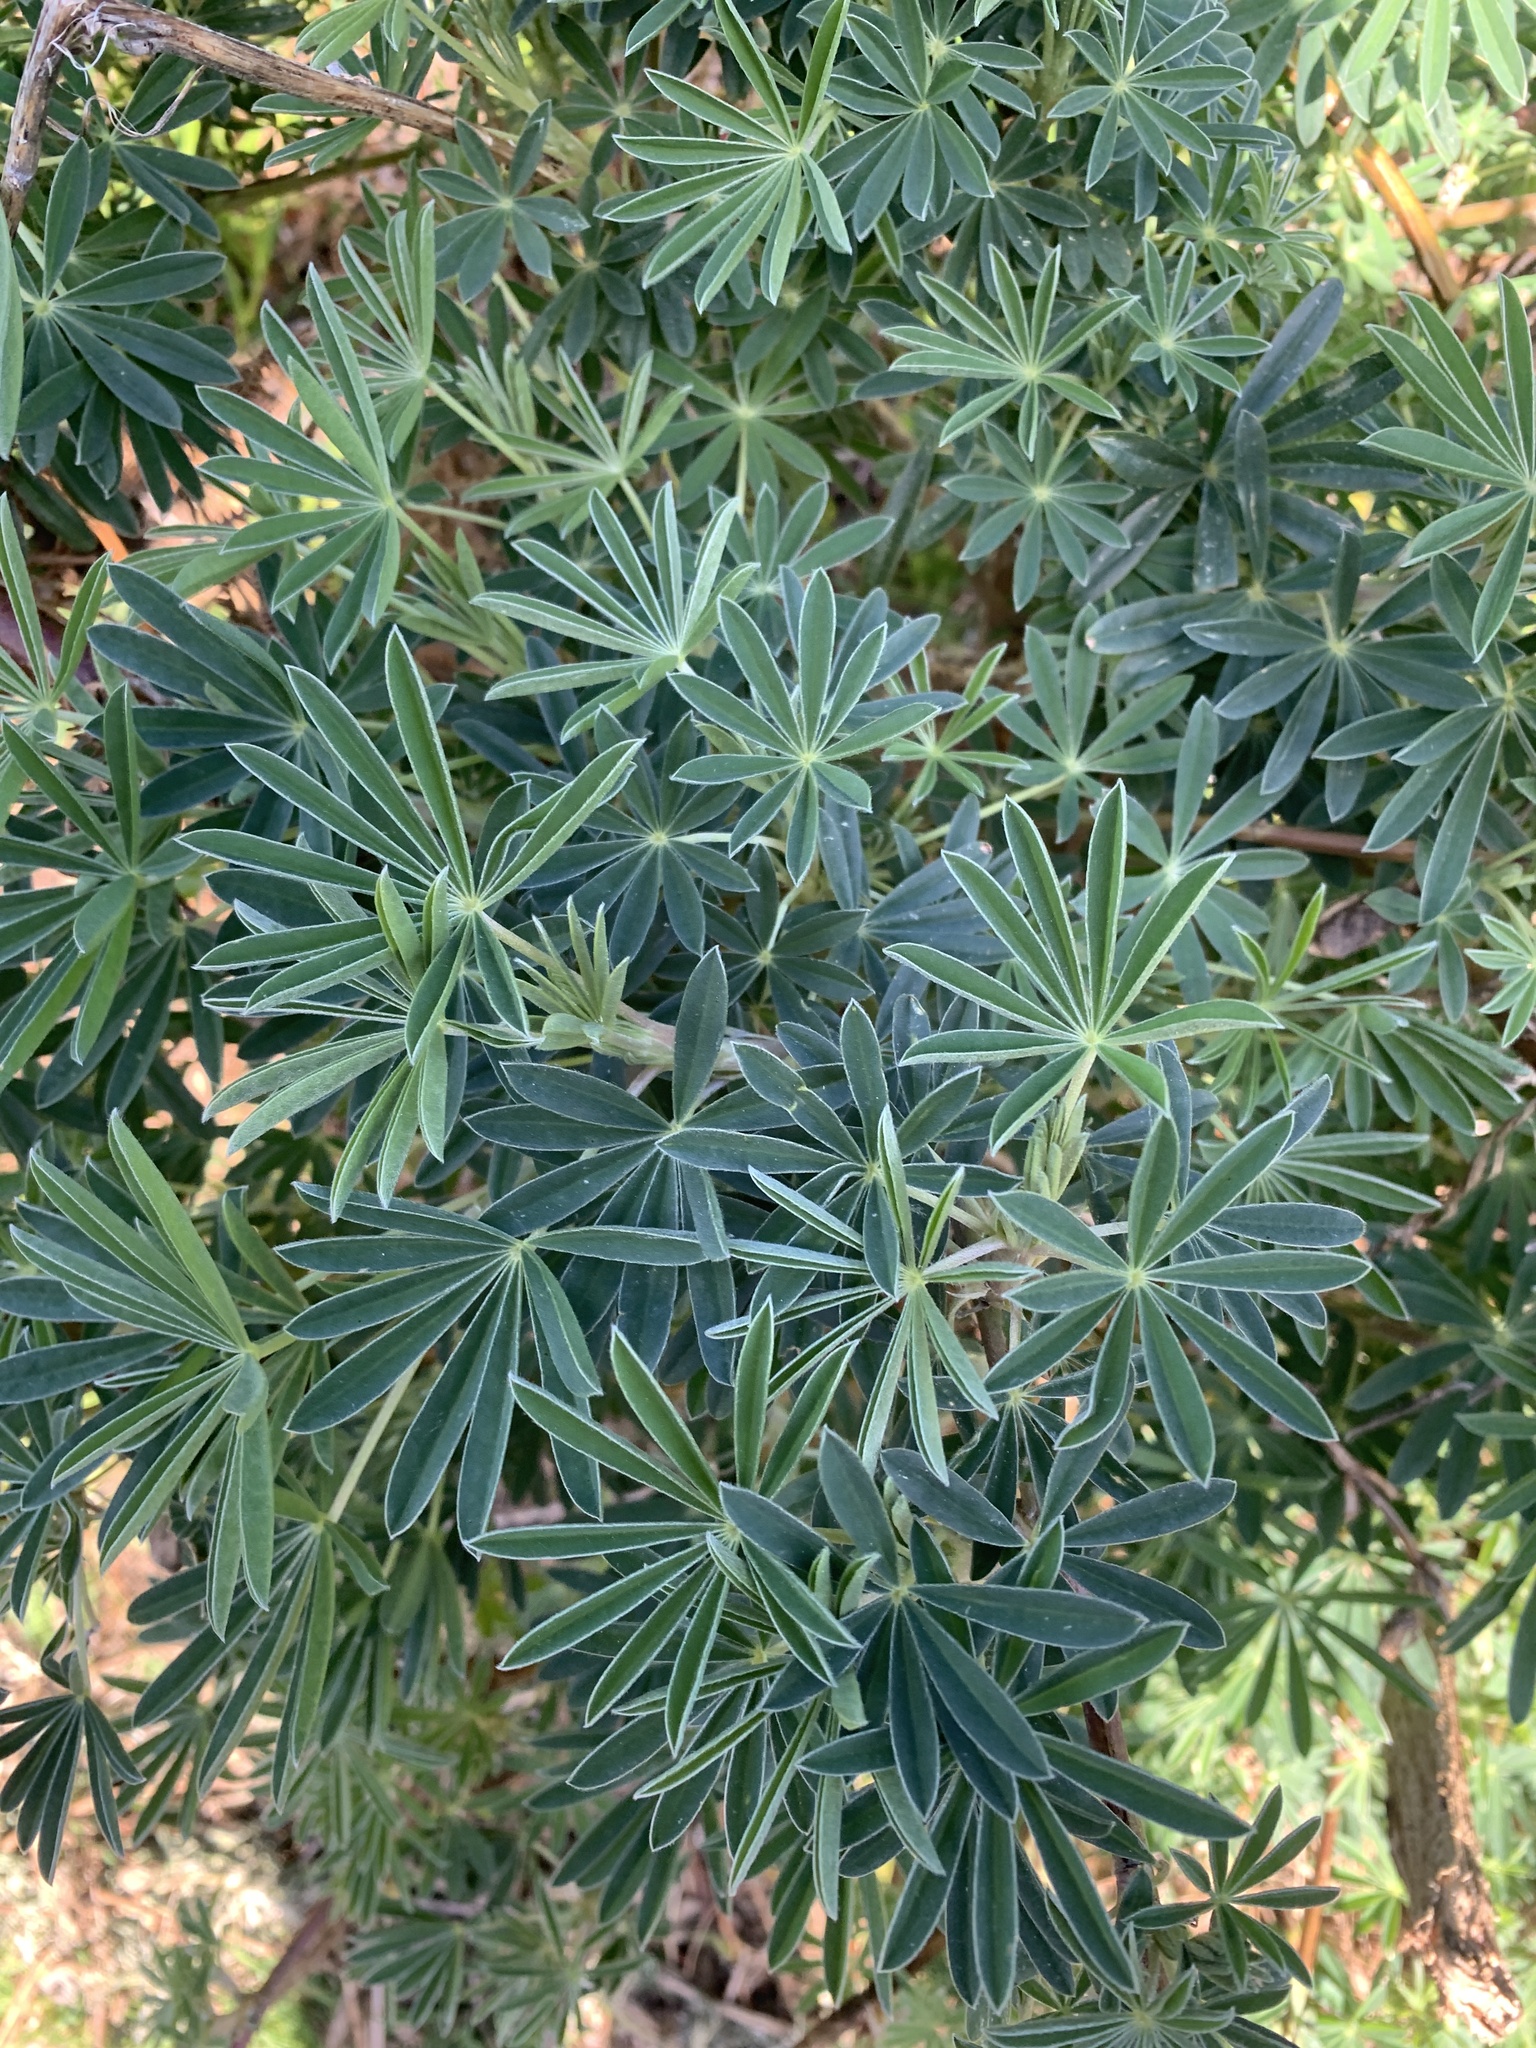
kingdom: Plantae
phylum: Tracheophyta
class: Magnoliopsida
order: Fabales
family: Fabaceae
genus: Lupinus
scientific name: Lupinus arboreus
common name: Yellow bush lupine
